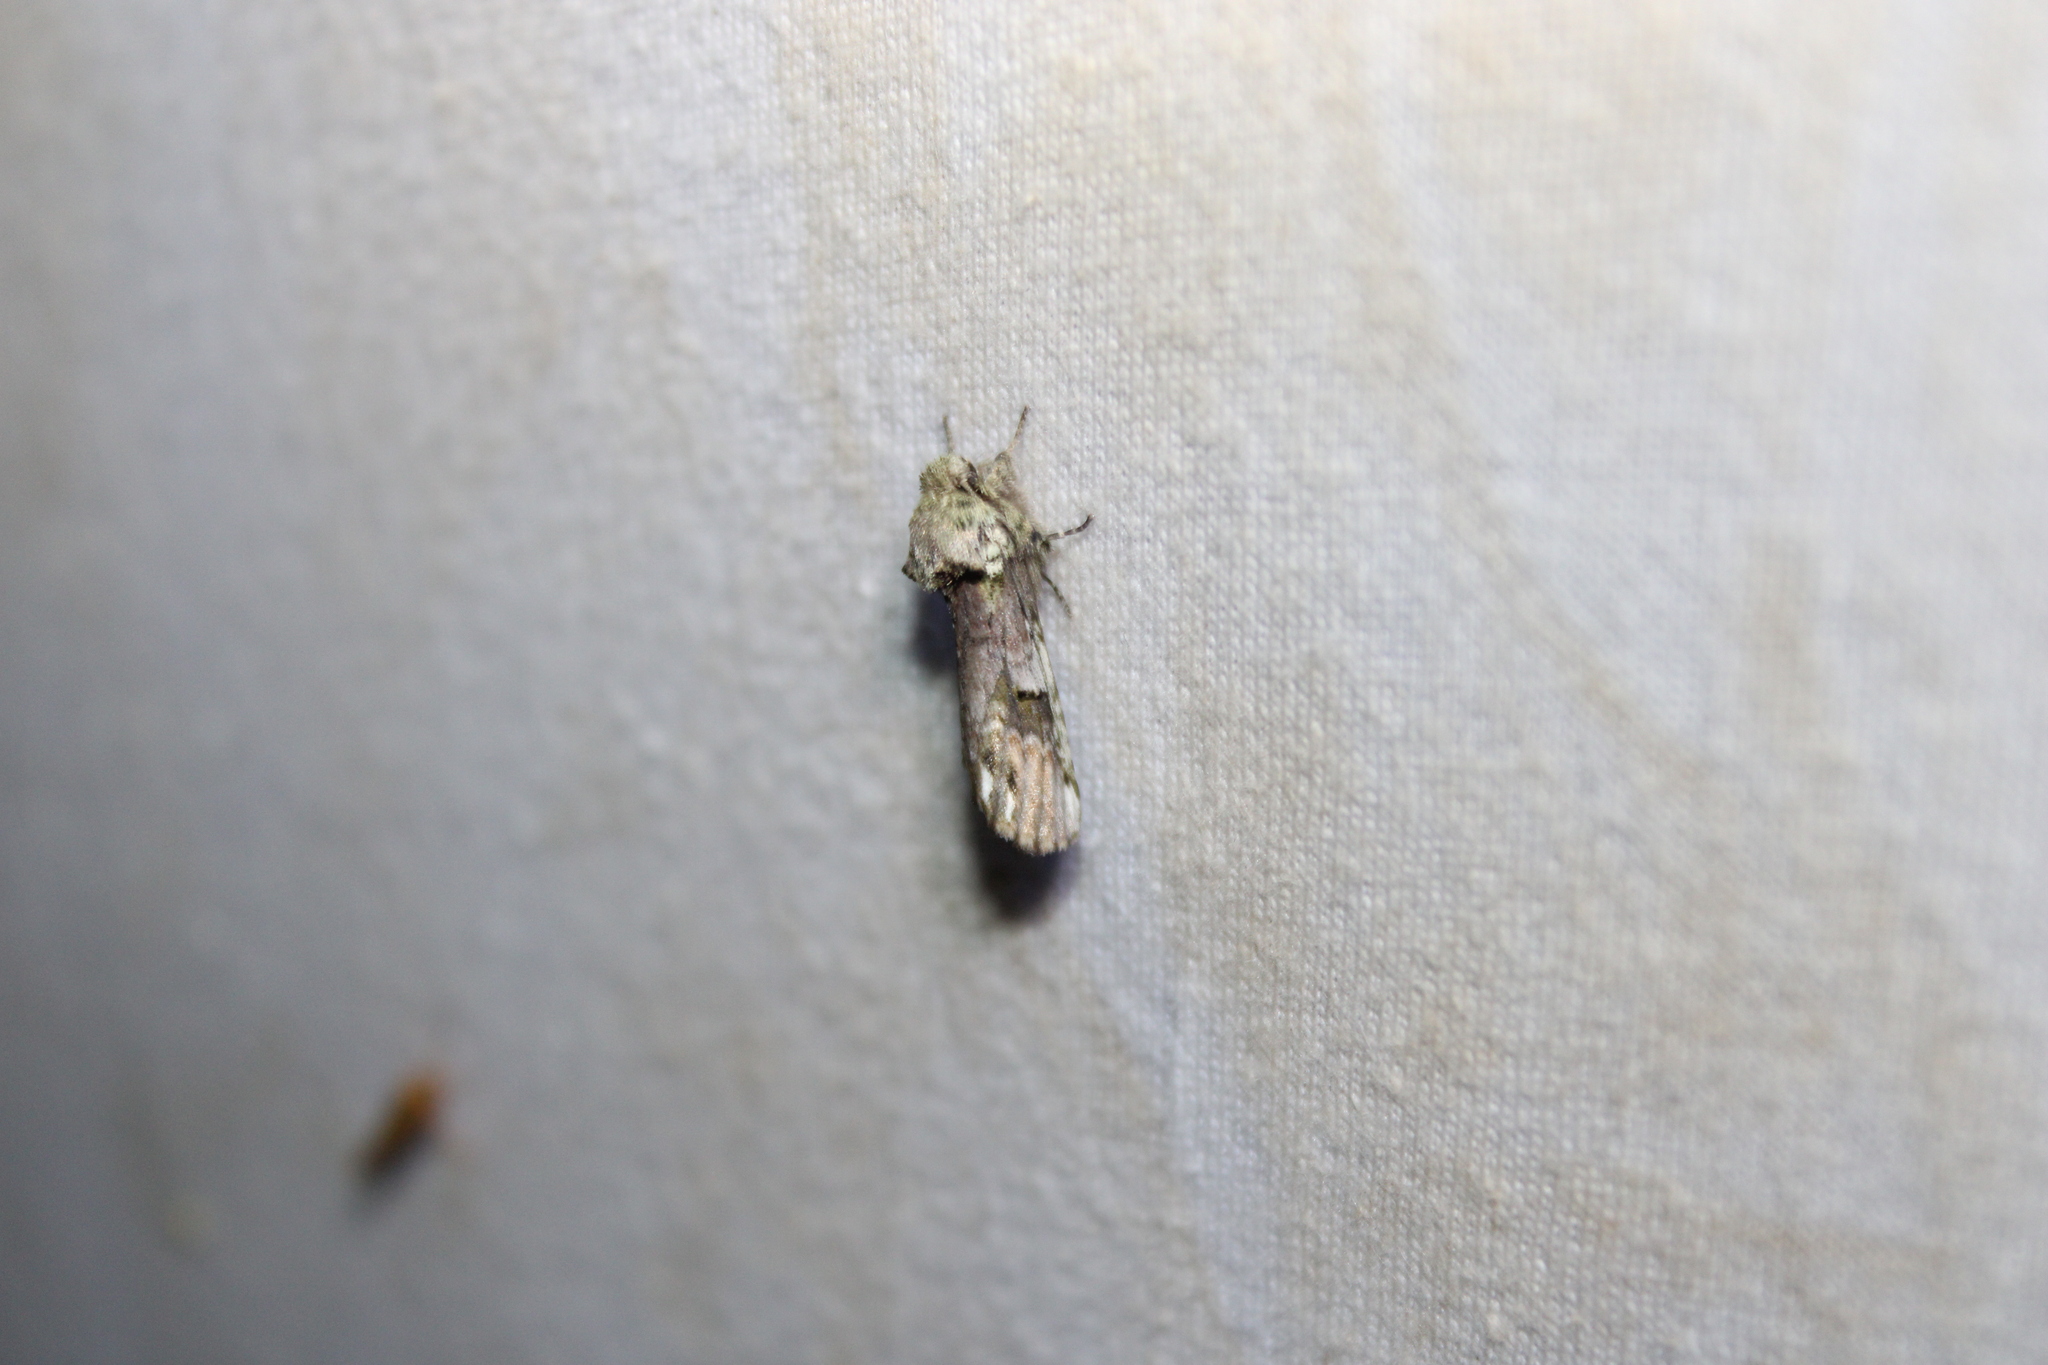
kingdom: Animalia
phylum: Arthropoda
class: Insecta
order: Lepidoptera
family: Notodontidae
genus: Schizura
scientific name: Schizura
